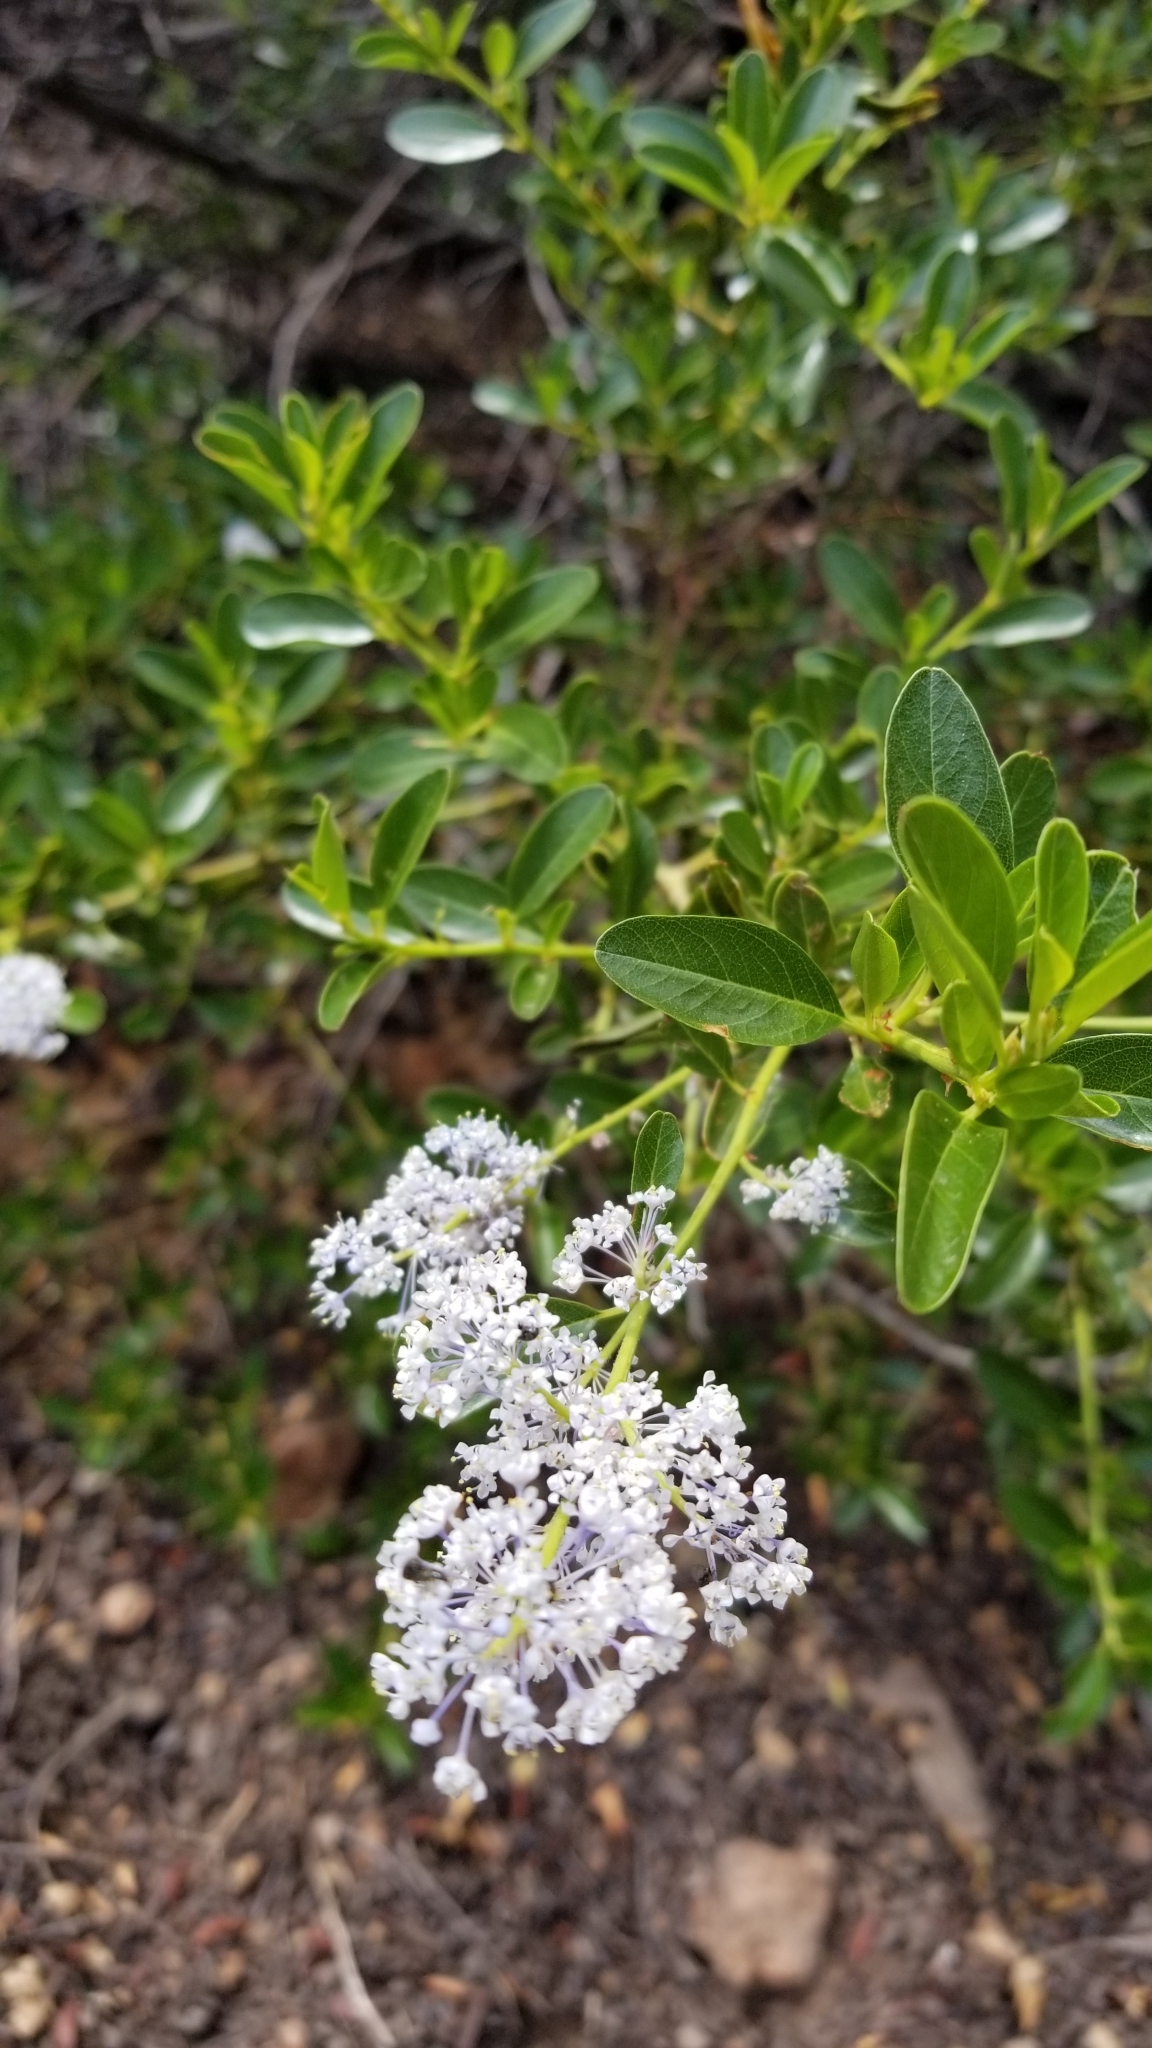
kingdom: Plantae
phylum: Tracheophyta
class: Magnoliopsida
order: Rosales
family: Rhamnaceae
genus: Ceanothus
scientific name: Ceanothus spinosus
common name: Greenbark whitethorn
